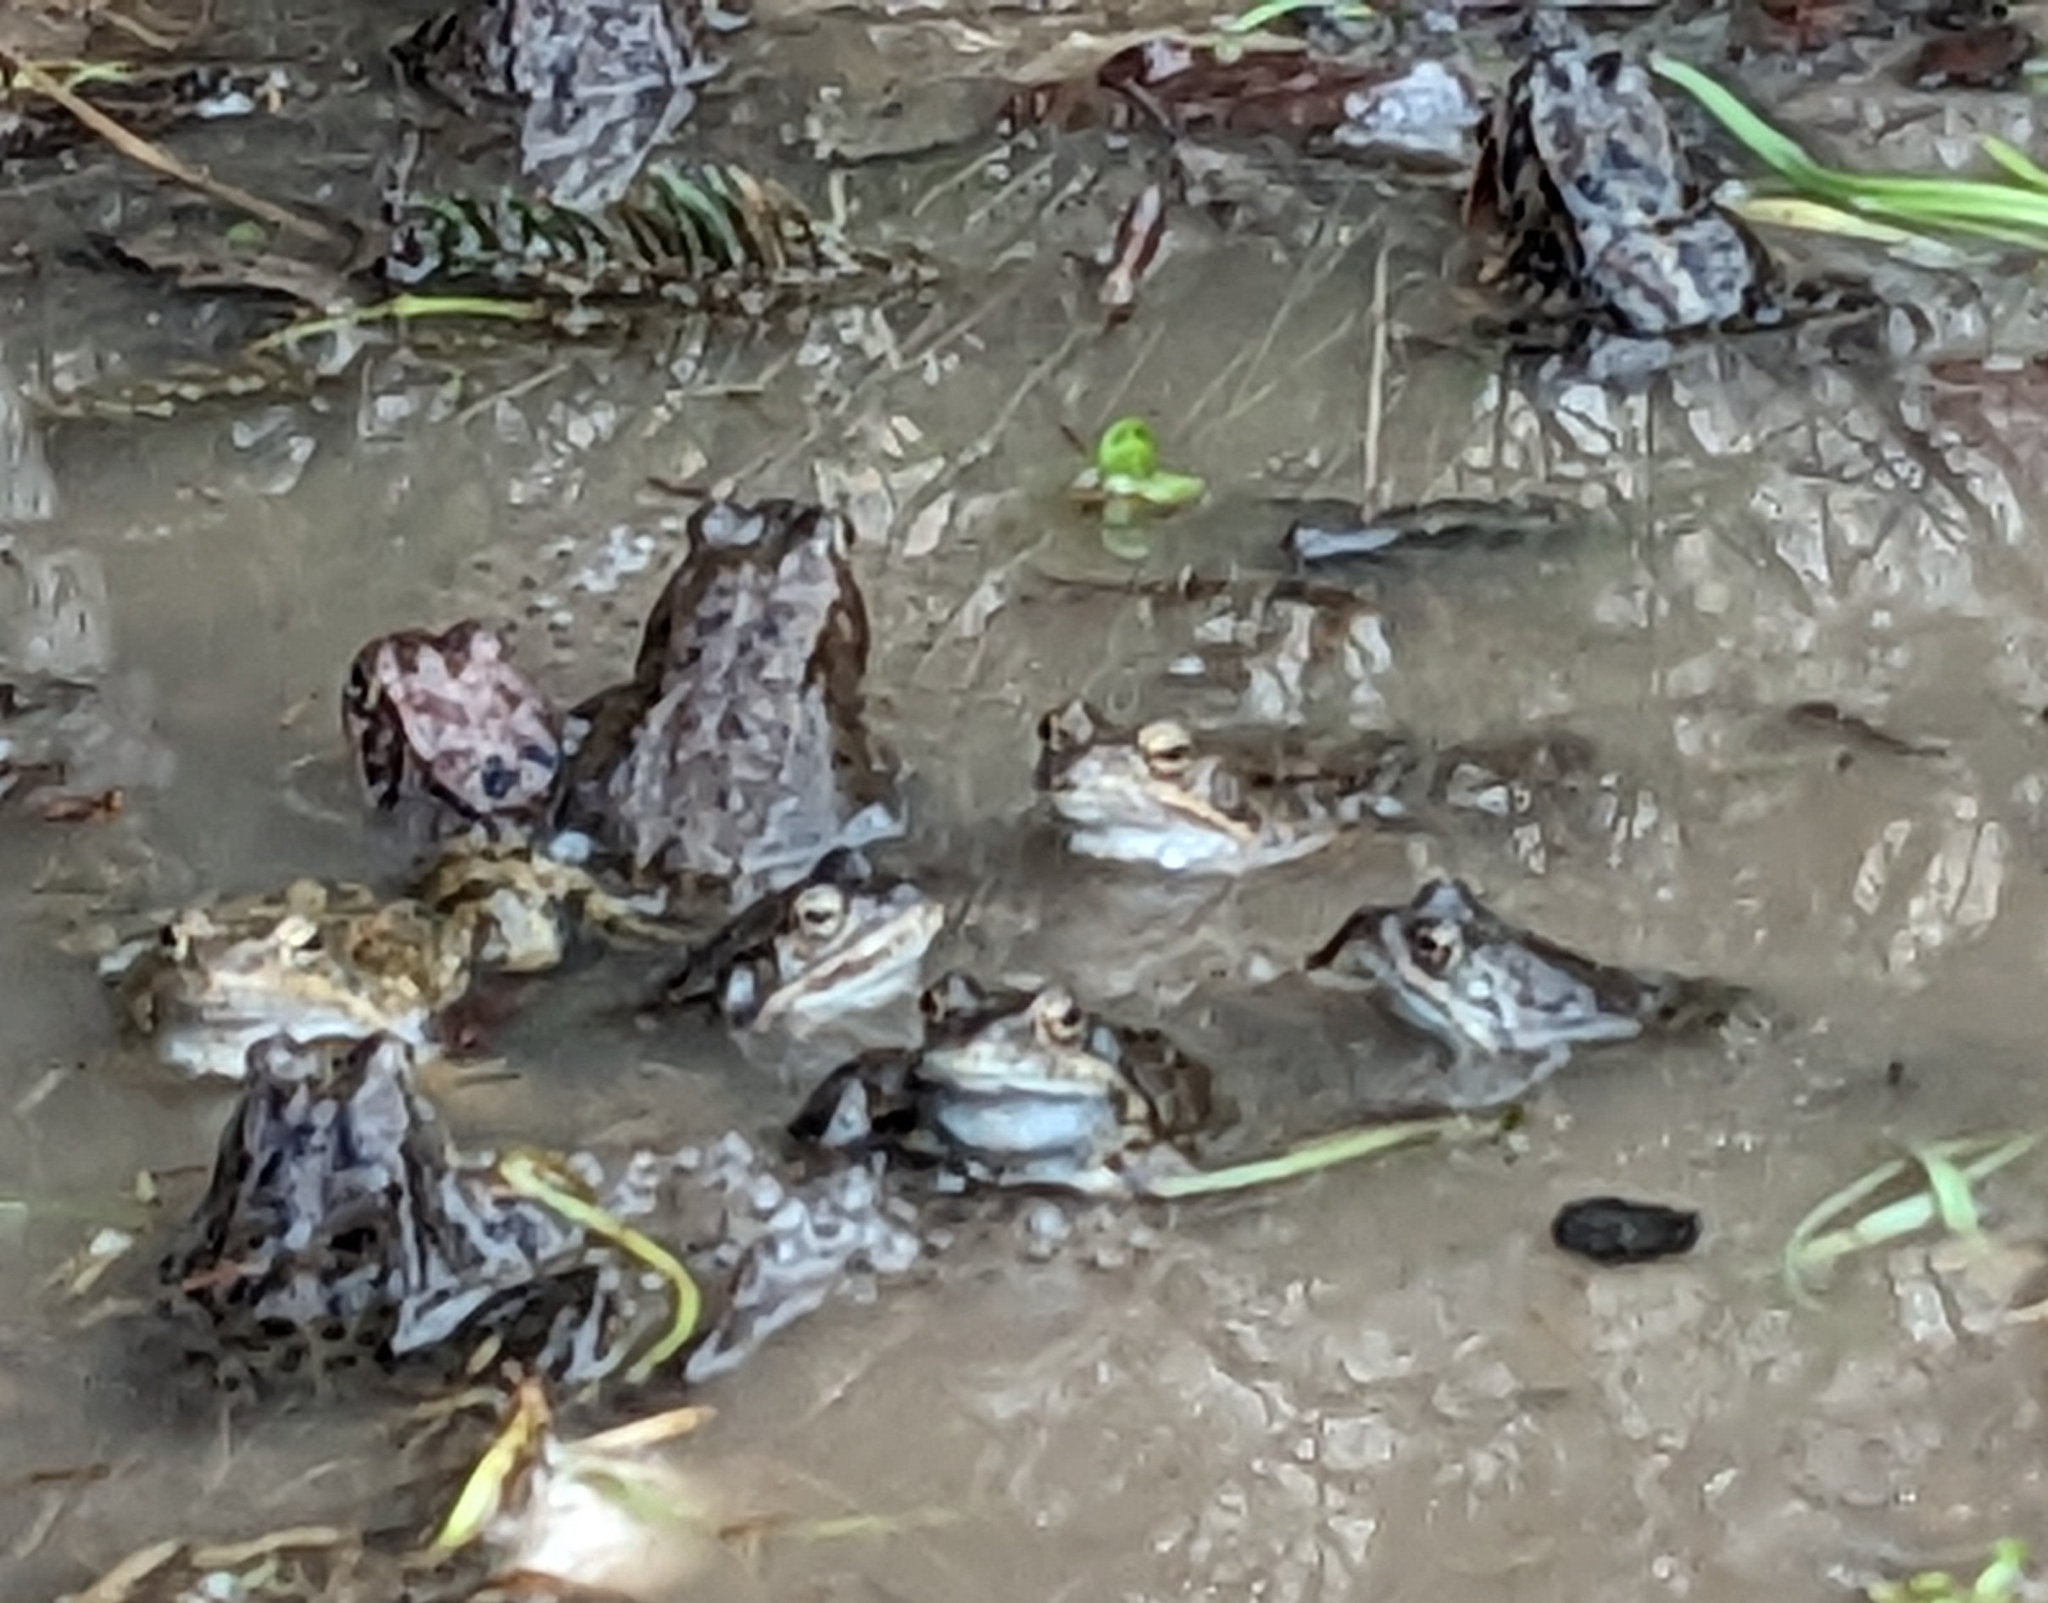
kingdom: Animalia
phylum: Chordata
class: Amphibia
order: Anura
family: Ranidae
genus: Rana
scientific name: Rana temporaria
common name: Common frog
